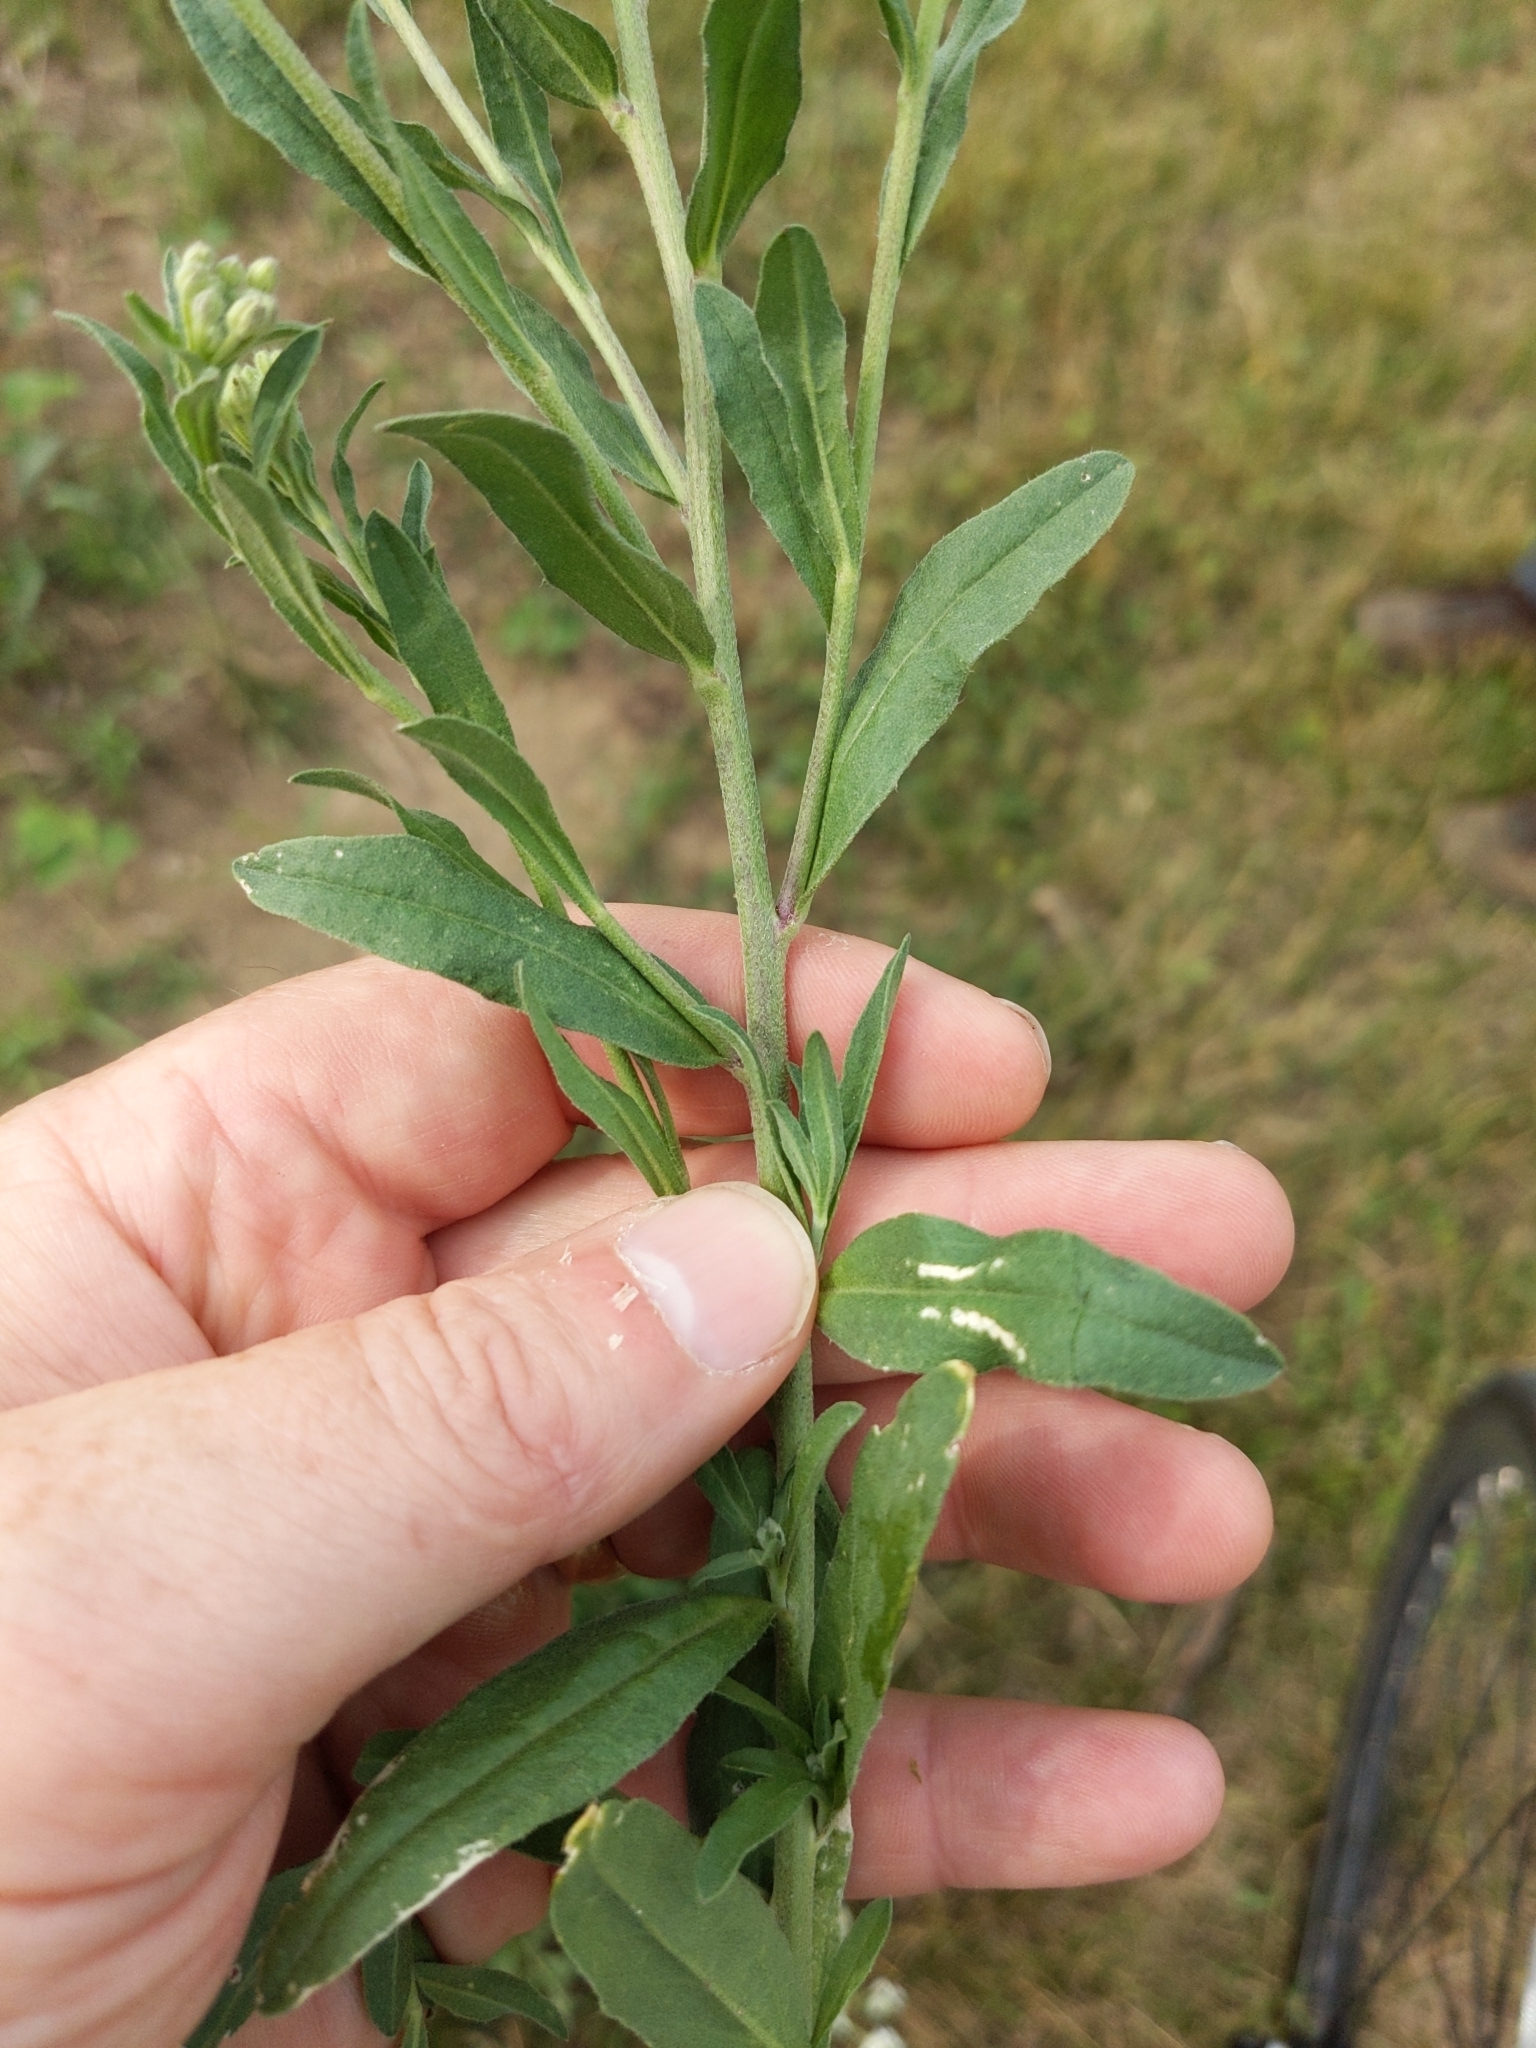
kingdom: Plantae
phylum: Tracheophyta
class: Magnoliopsida
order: Brassicales
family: Brassicaceae
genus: Berteroa
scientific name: Berteroa incana
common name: Hoary alison
